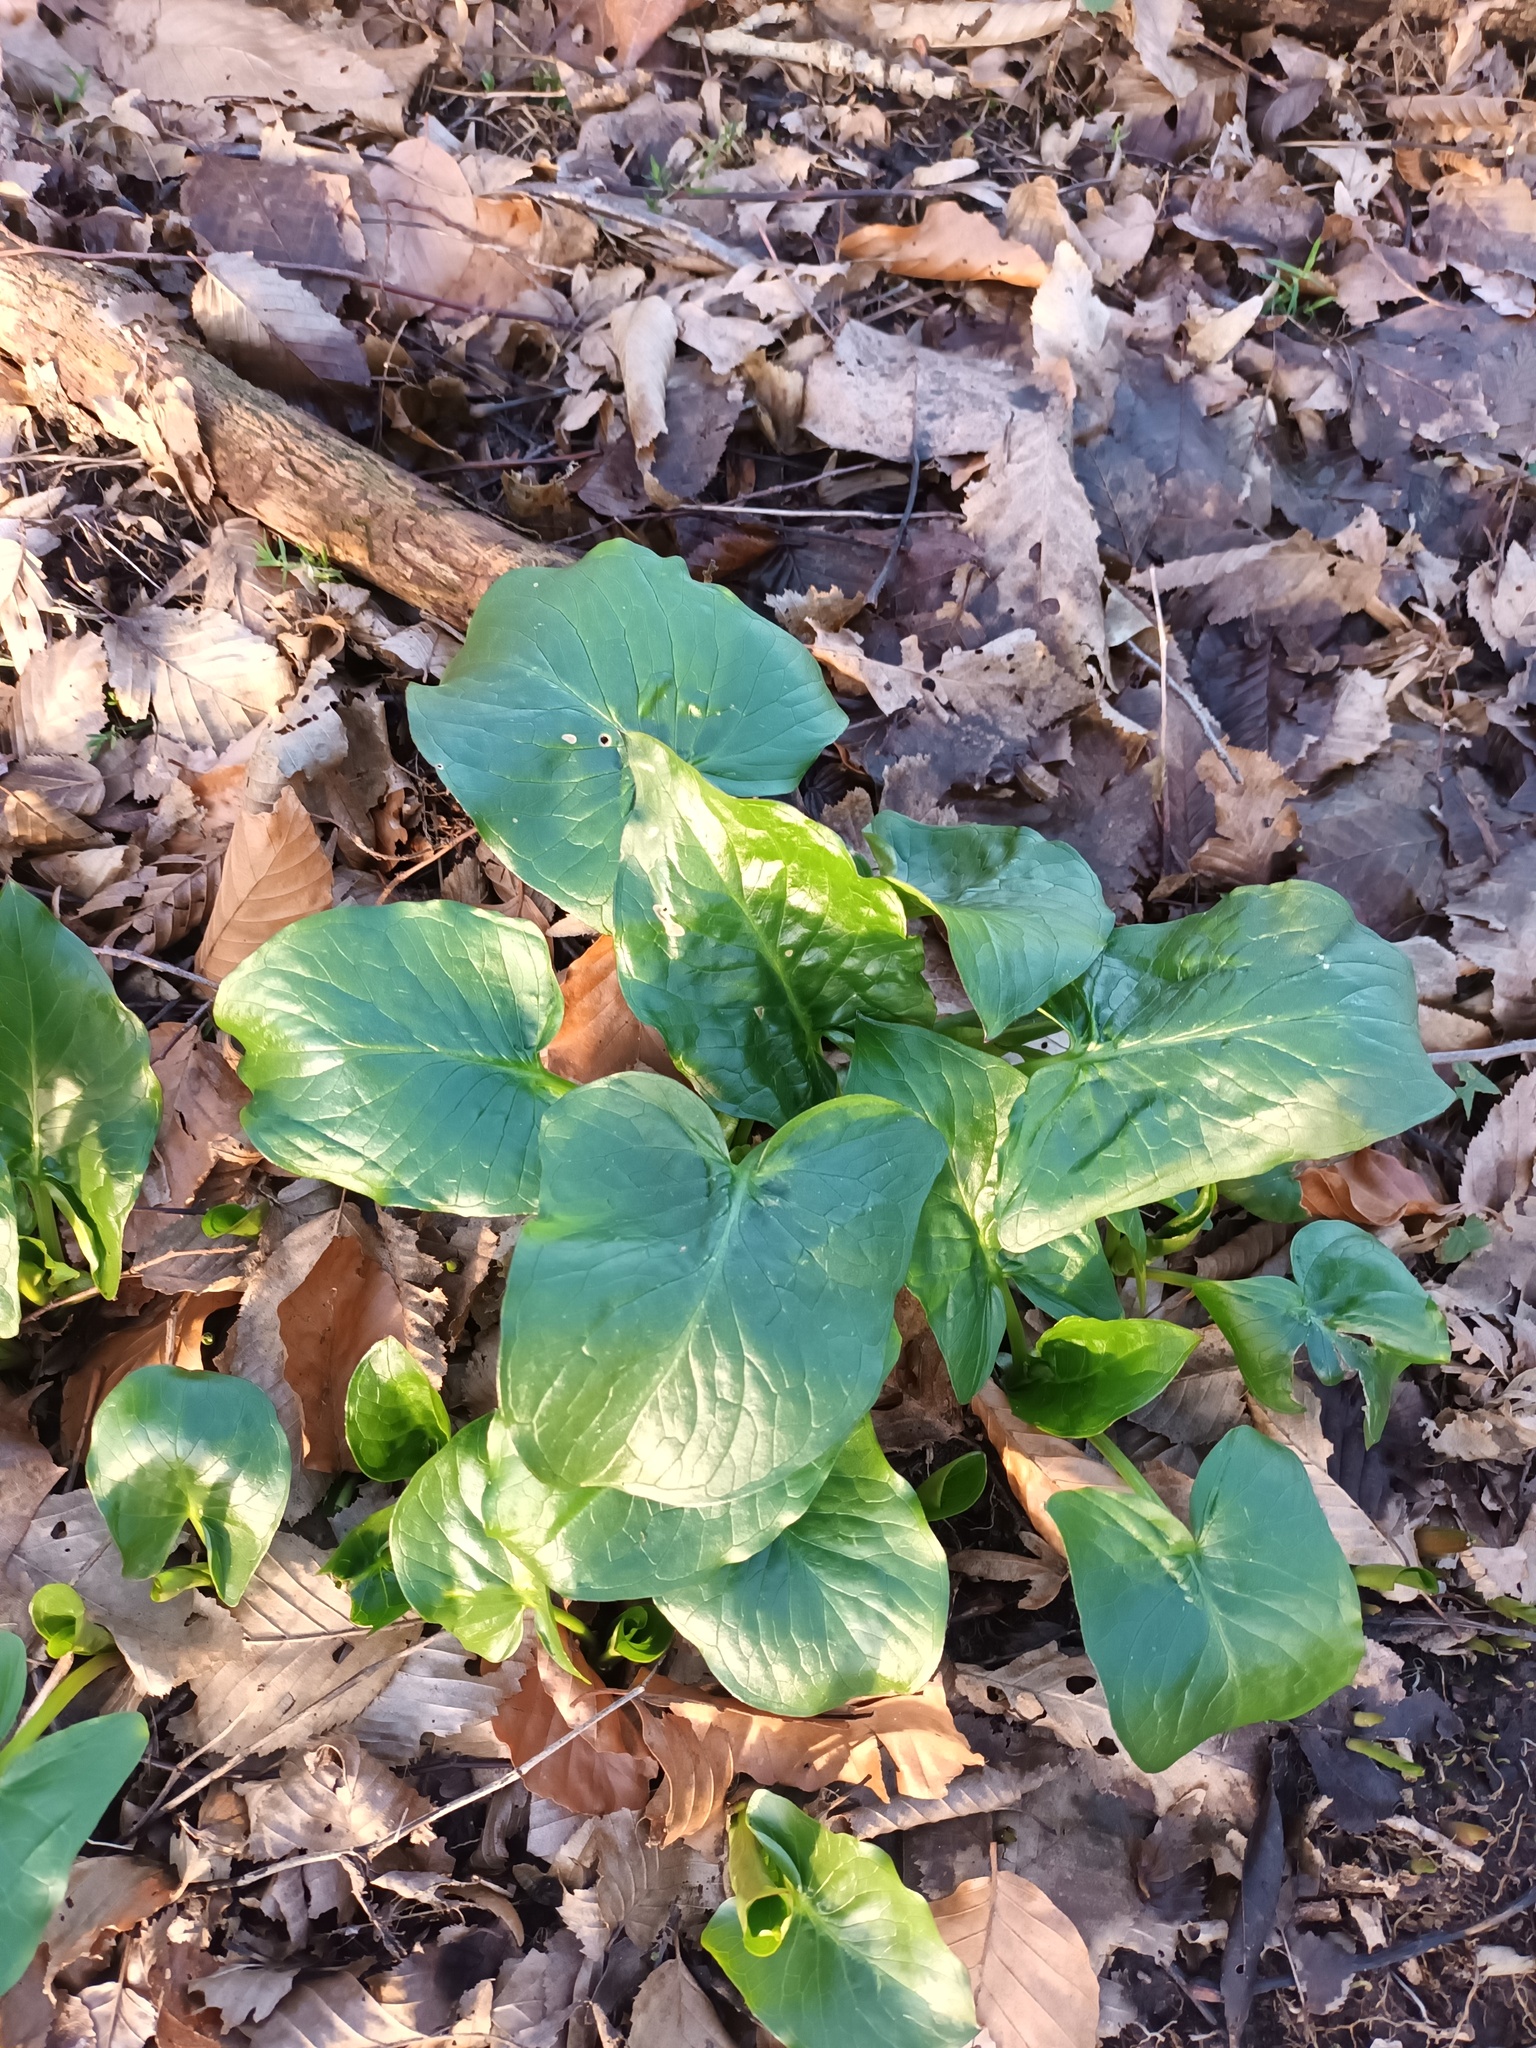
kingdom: Plantae
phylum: Tracheophyta
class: Liliopsida
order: Alismatales
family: Araceae
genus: Arum
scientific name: Arum maculatum
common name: Lords-and-ladies
